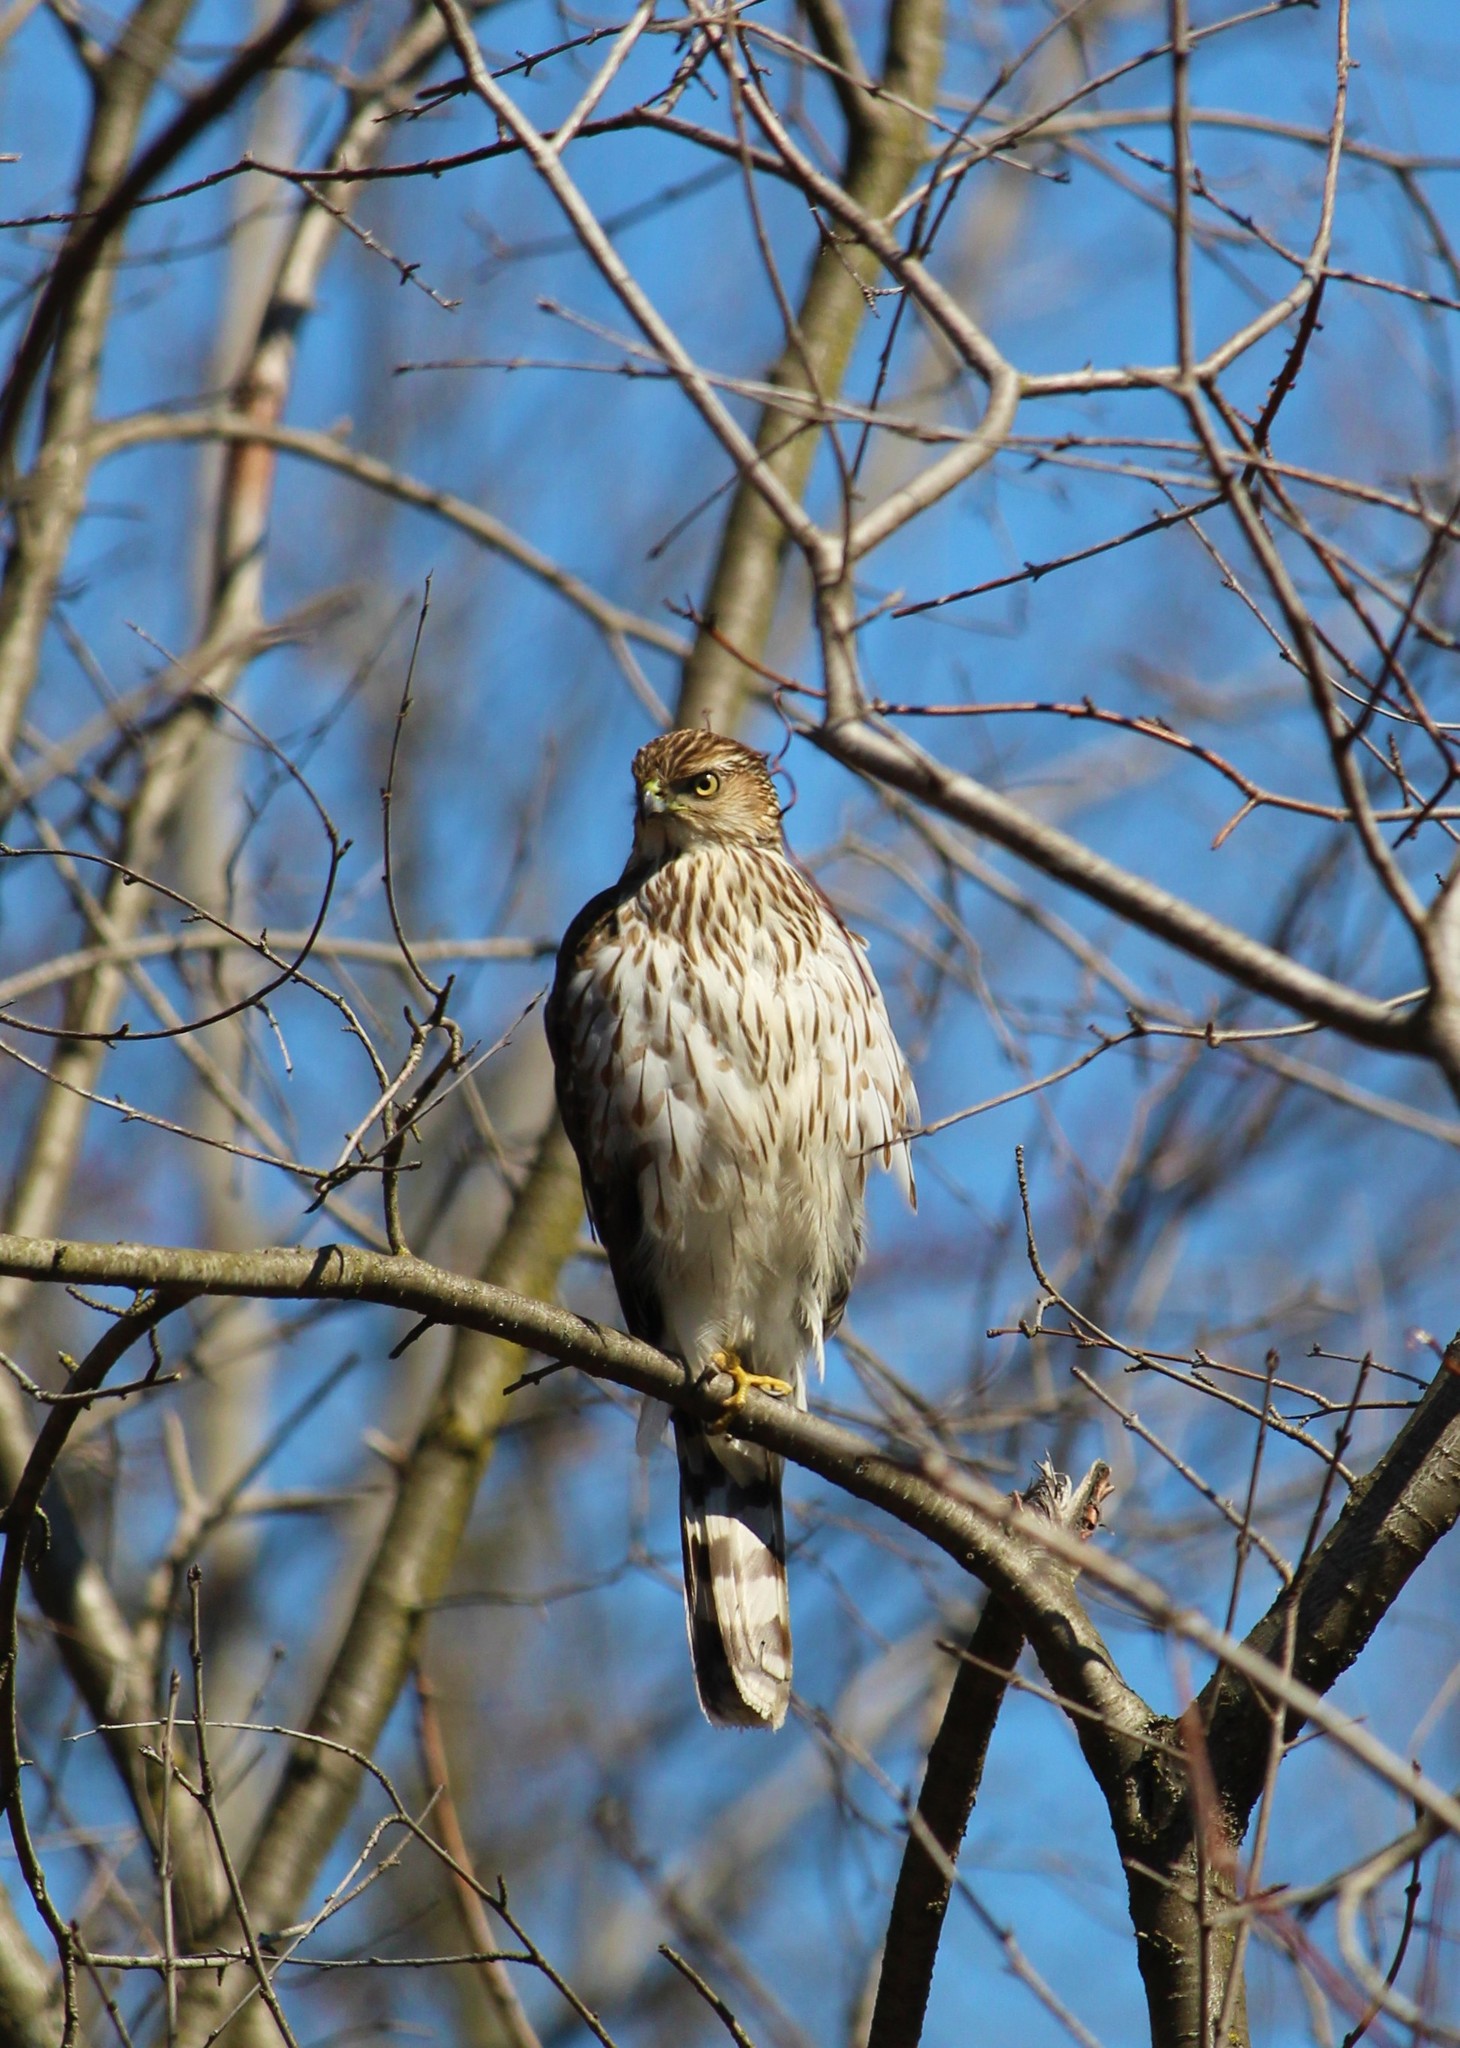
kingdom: Animalia
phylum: Chordata
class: Aves
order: Accipitriformes
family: Accipitridae
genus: Accipiter
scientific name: Accipiter cooperii
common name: Cooper's hawk
